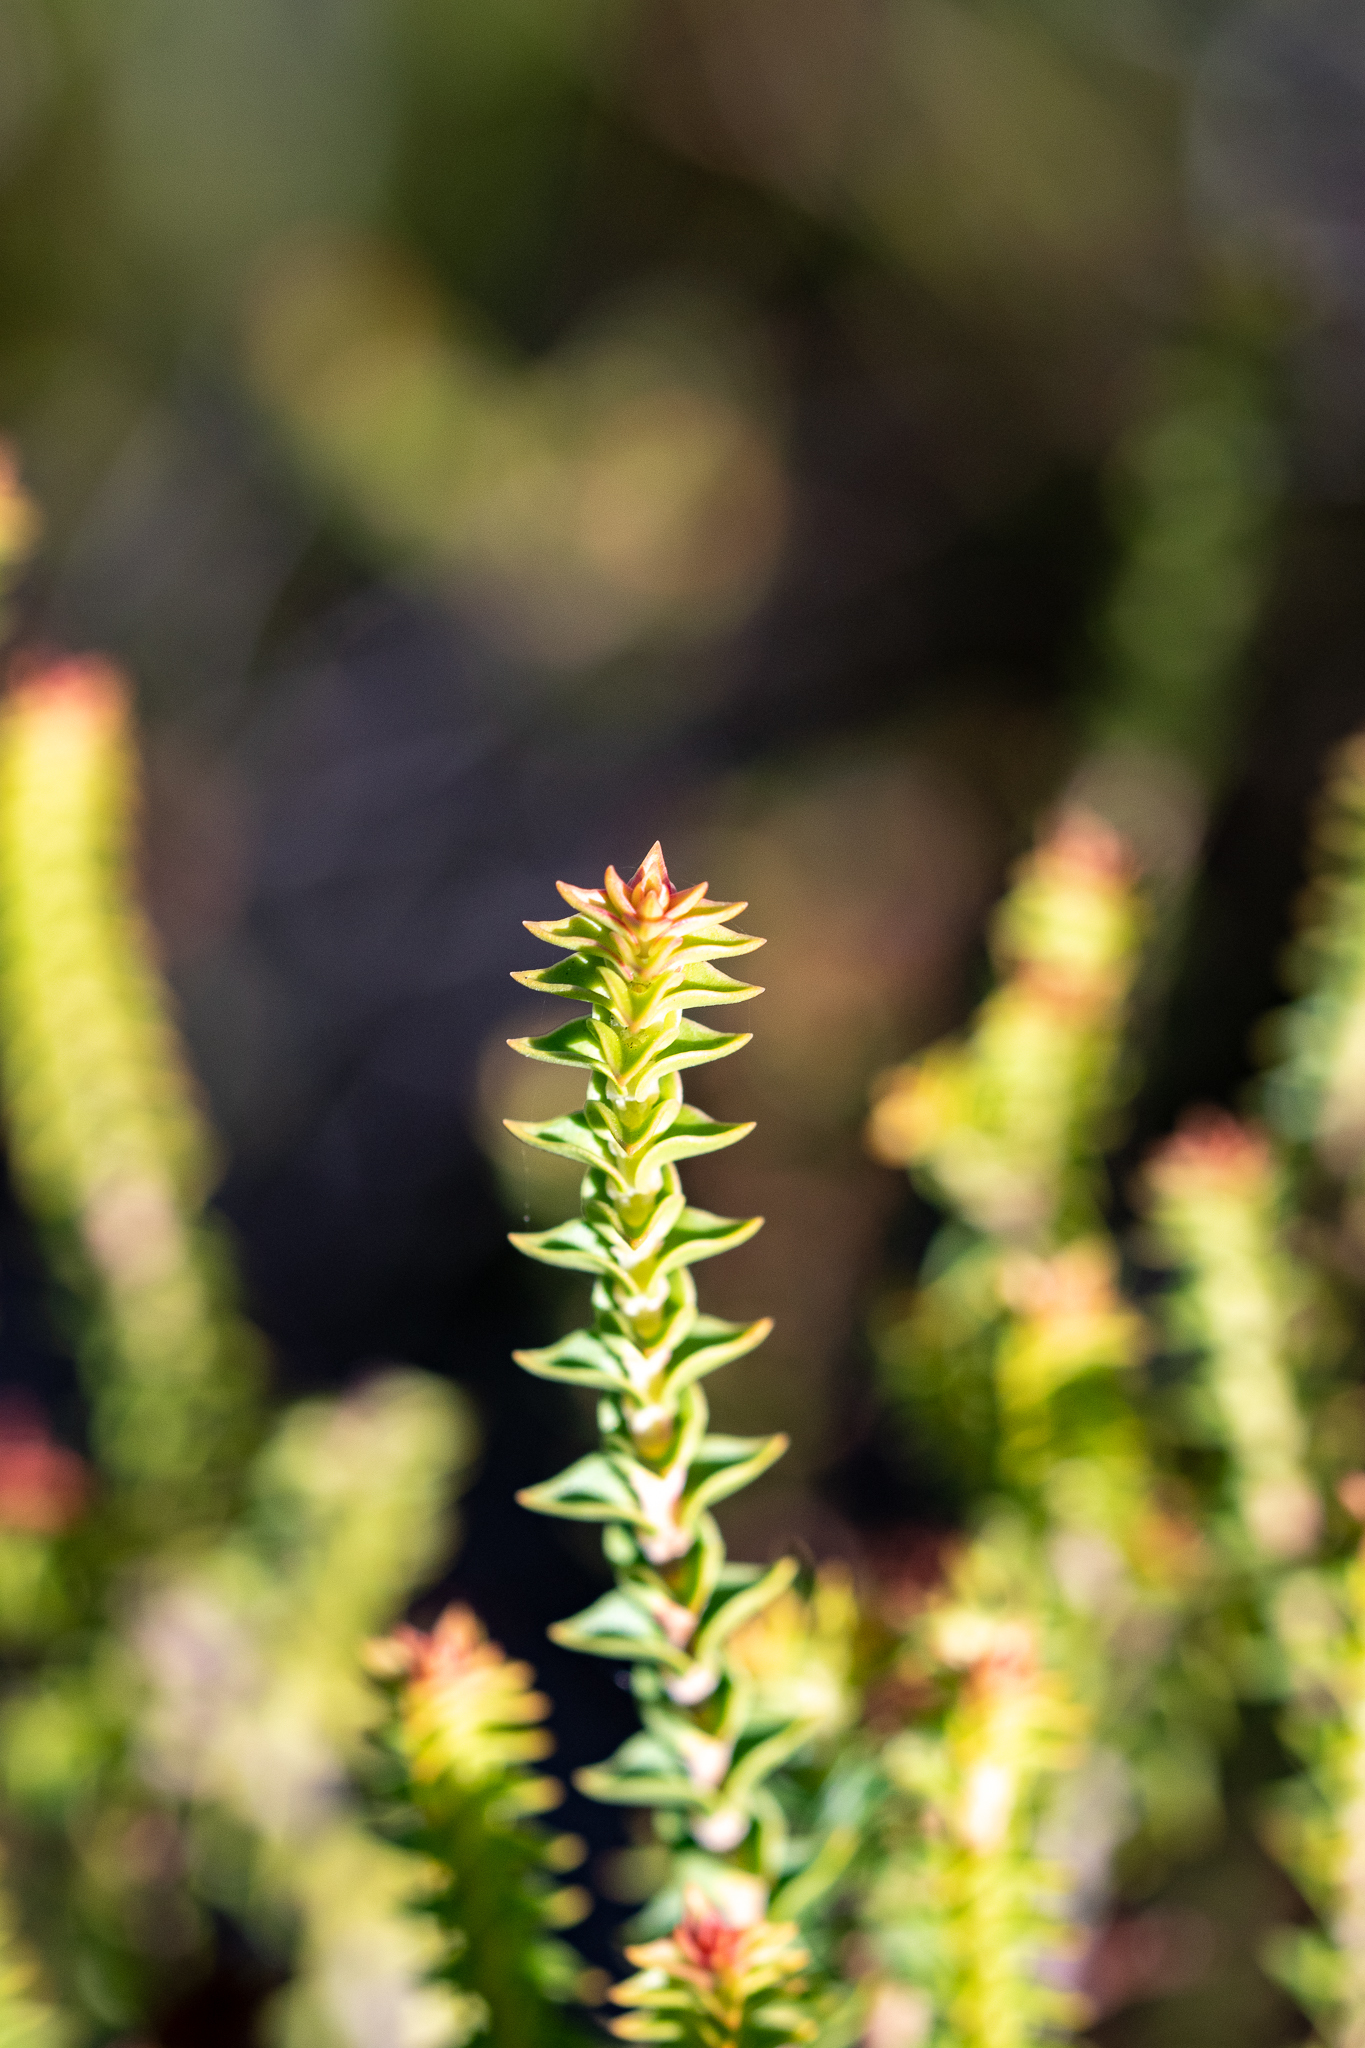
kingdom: Plantae
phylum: Tracheophyta
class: Magnoliopsida
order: Myrtales
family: Penaeaceae
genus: Penaea
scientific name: Penaea mucronata
